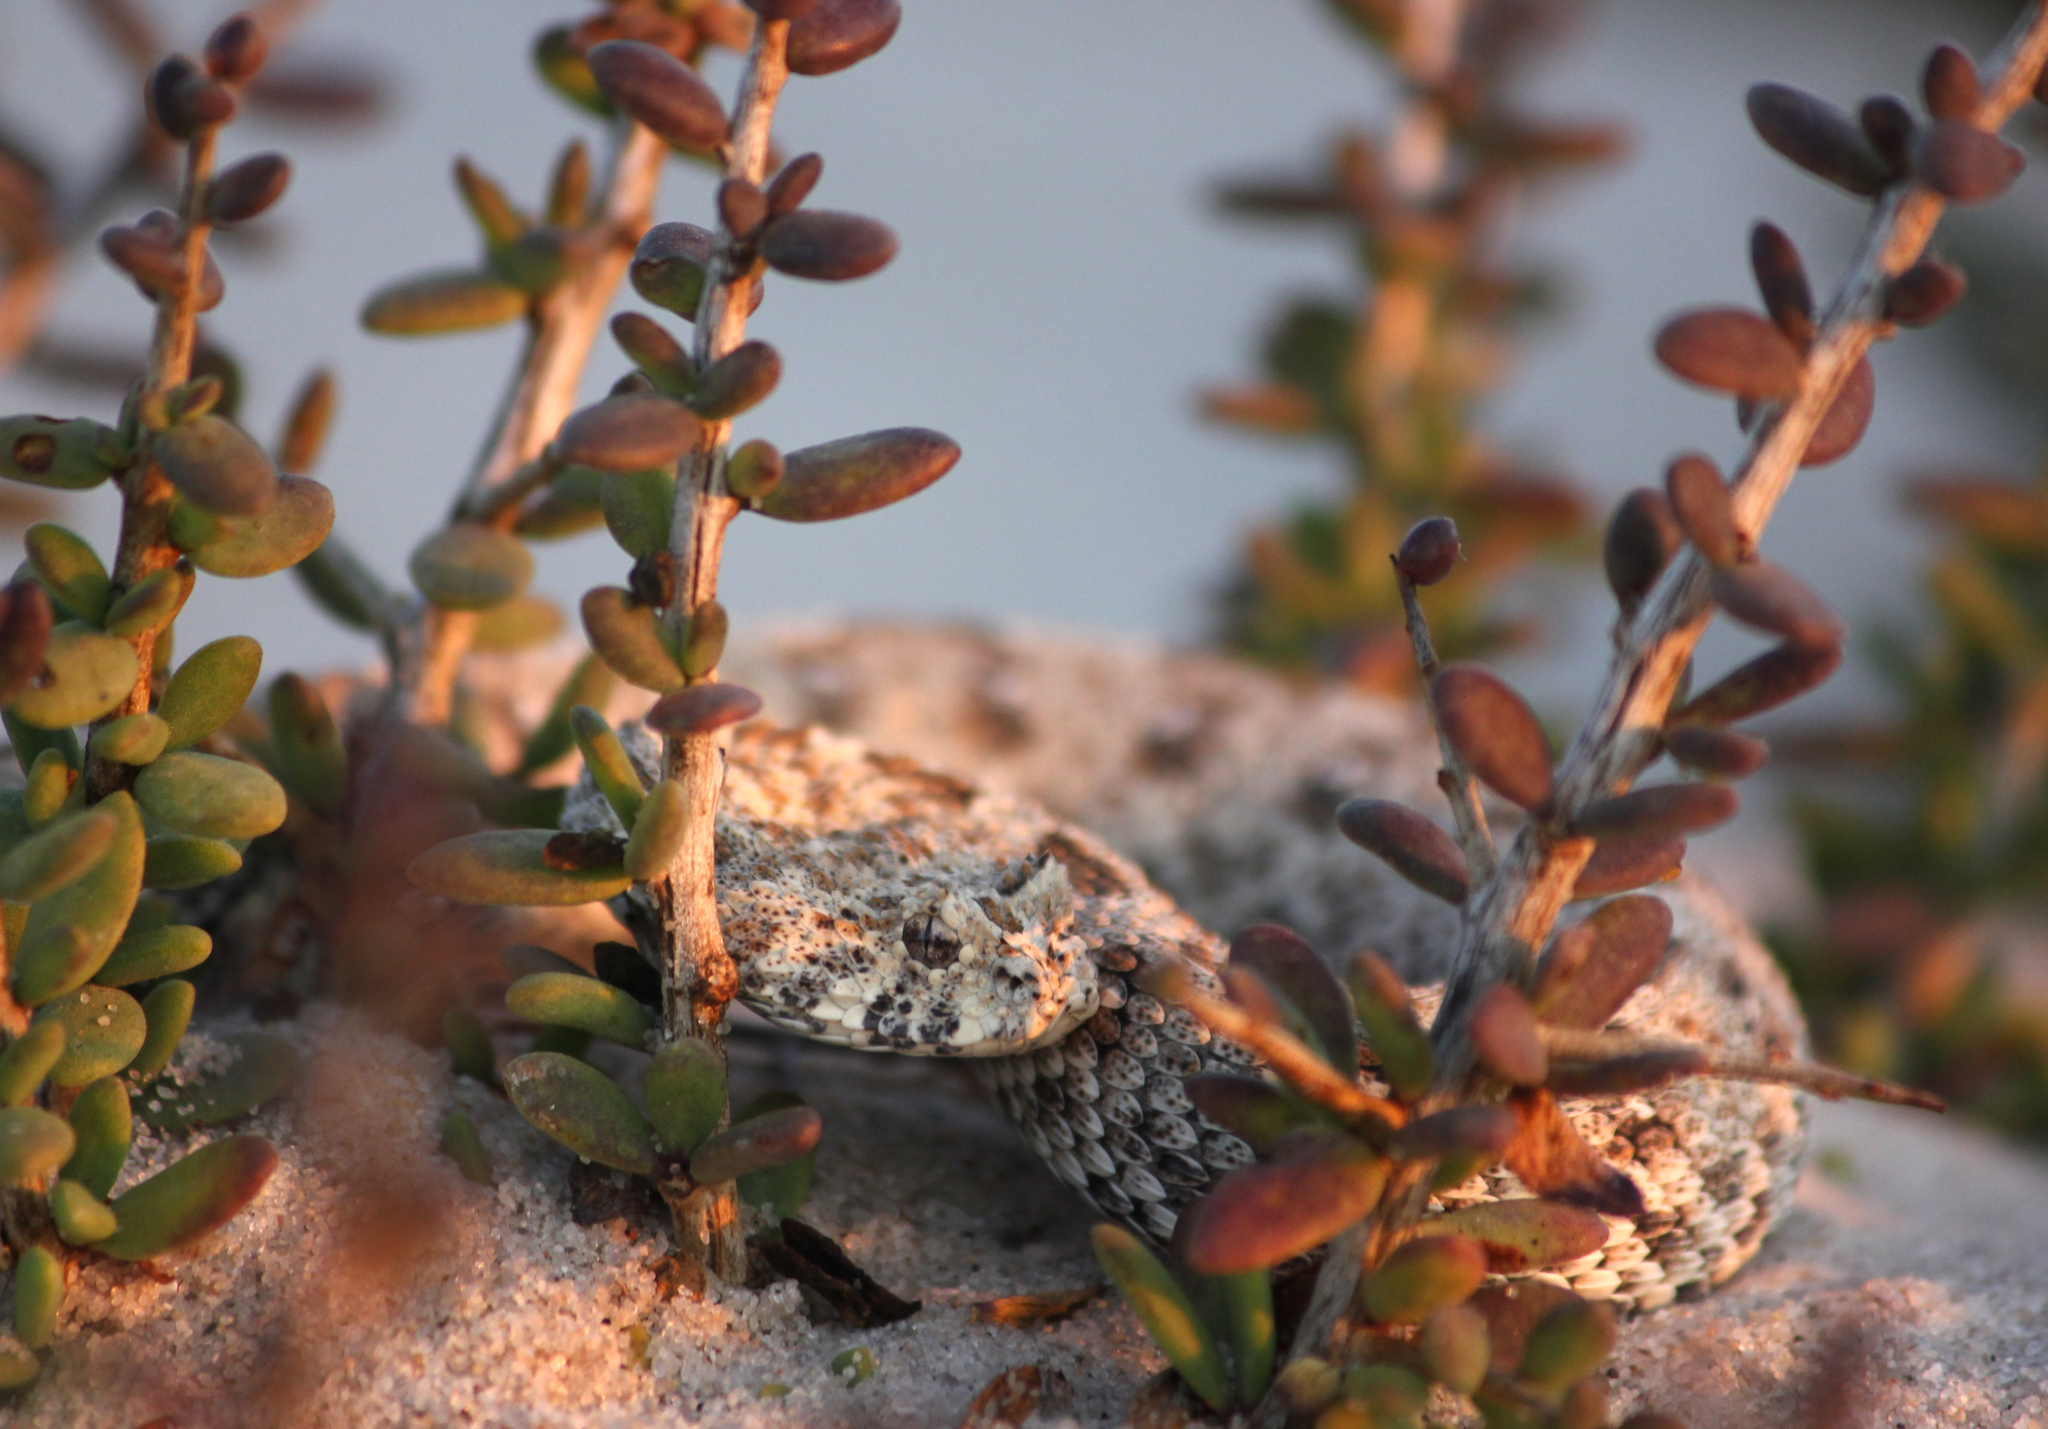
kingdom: Animalia
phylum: Chordata
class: Squamata
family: Viperidae
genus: Bitis
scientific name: Bitis schneideri
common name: Namaqua dwarf adder
